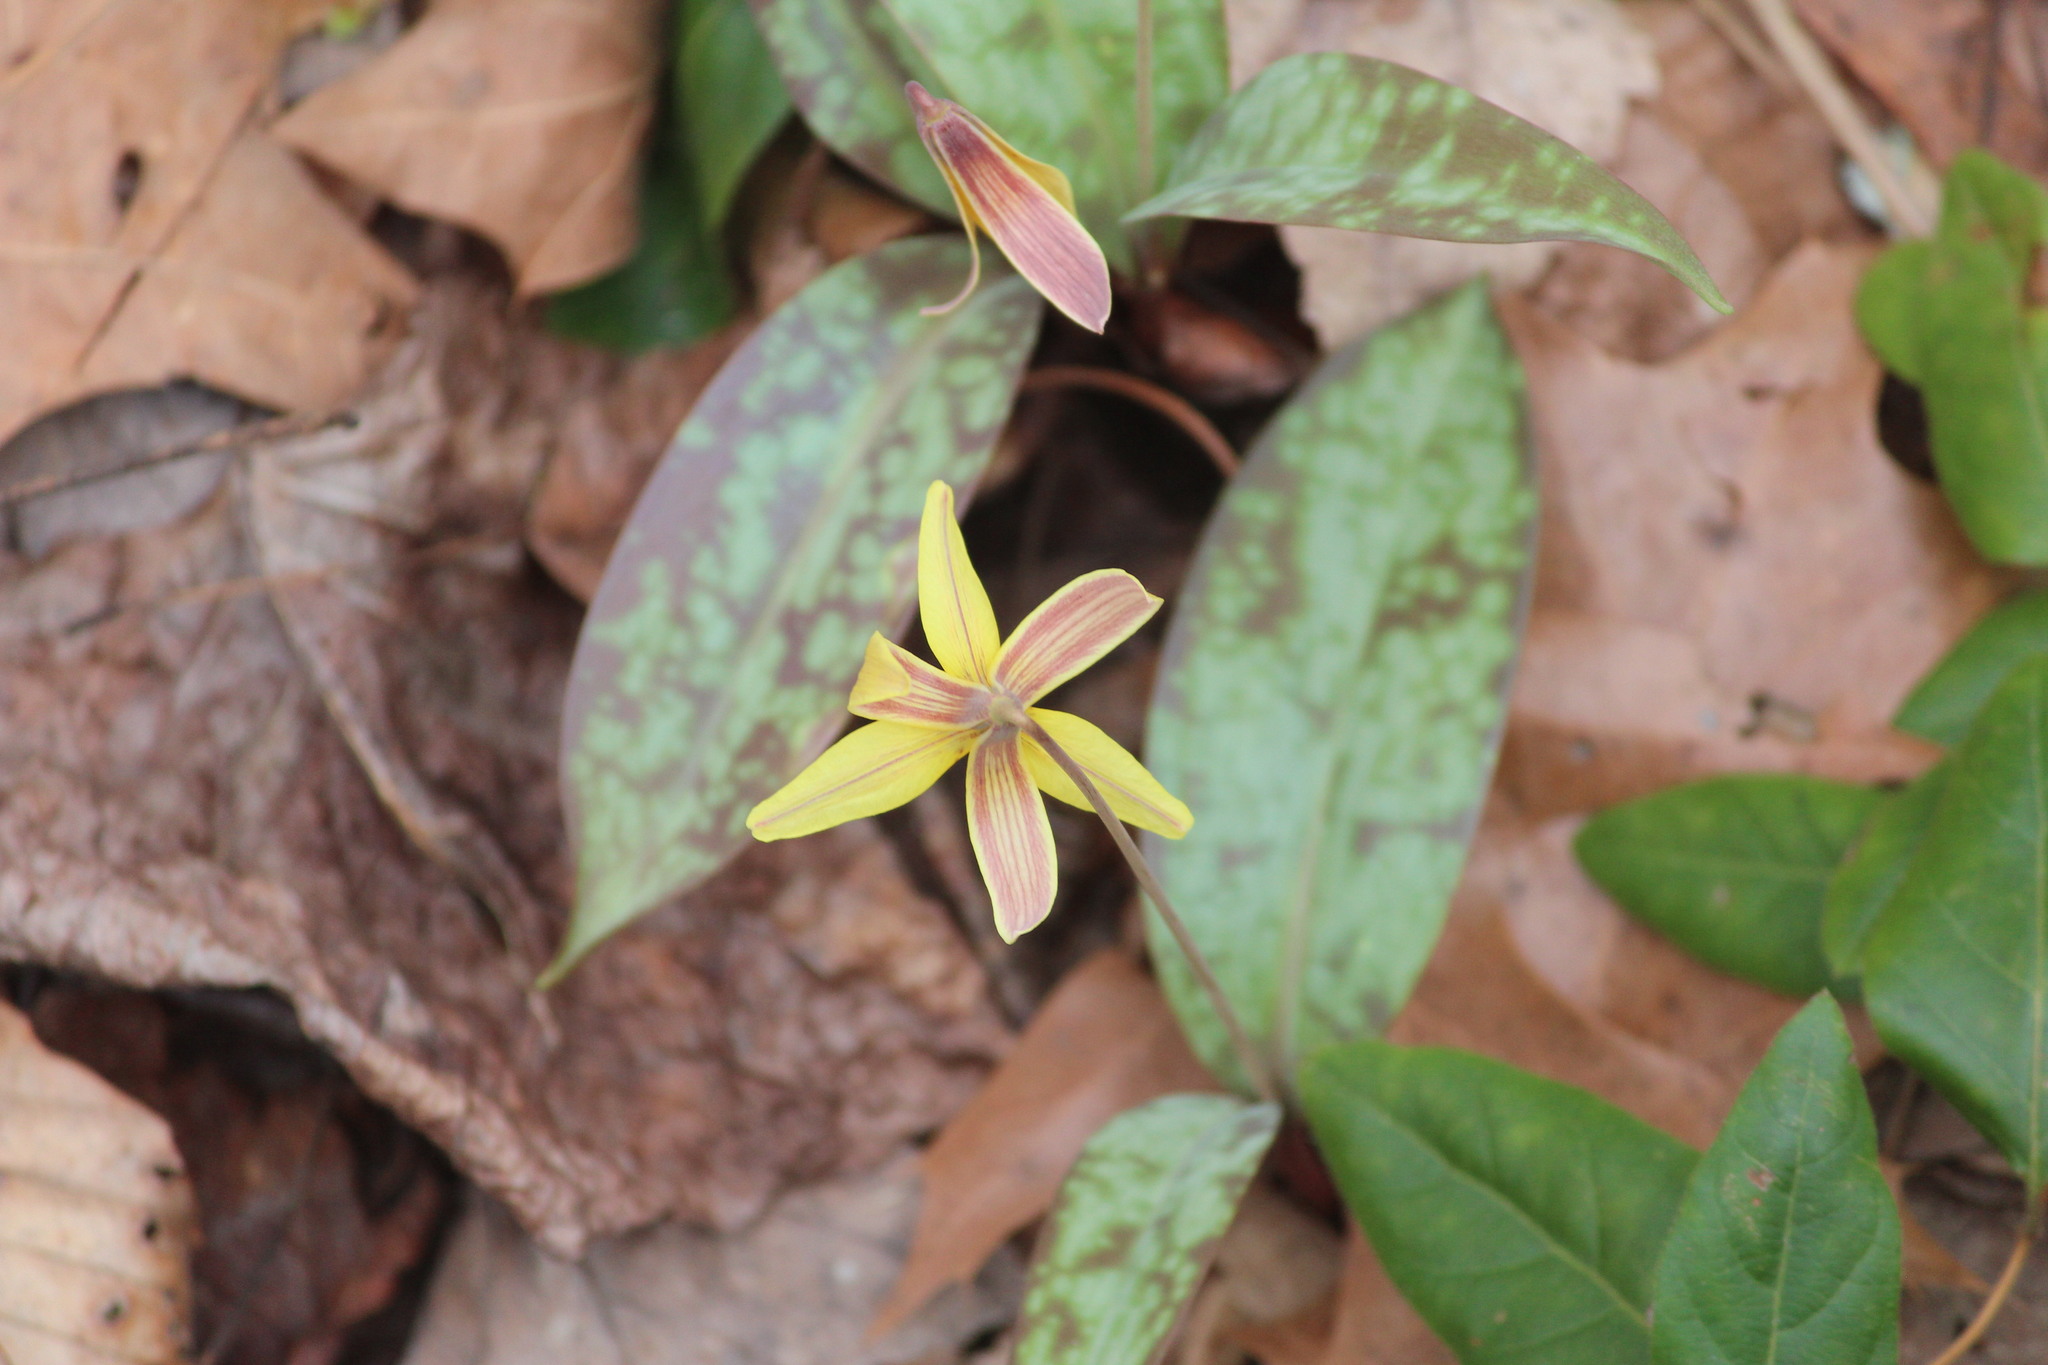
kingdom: Plantae
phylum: Tracheophyta
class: Liliopsida
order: Liliales
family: Liliaceae
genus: Erythronium
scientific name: Erythronium umbilicatum
